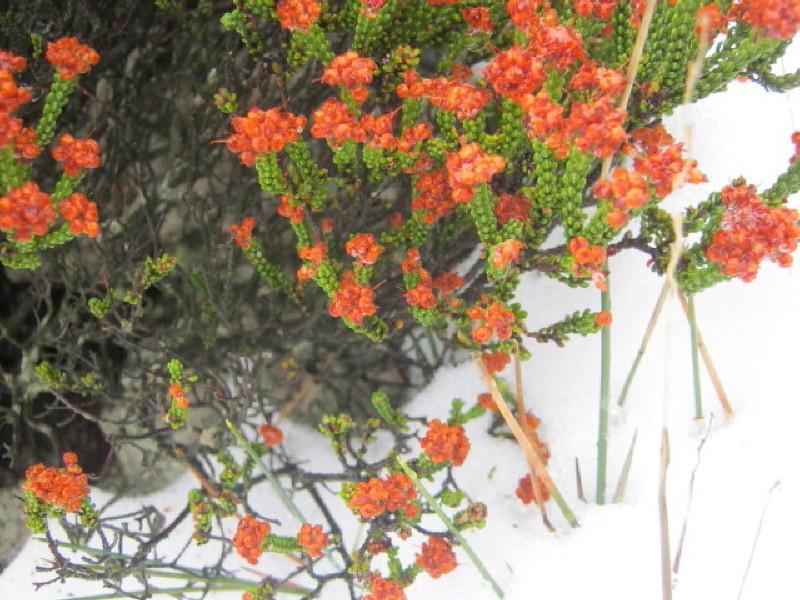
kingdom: Plantae
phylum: Tracheophyta
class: Magnoliopsida
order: Ericales
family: Ericaceae
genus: Erica
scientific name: Erica petraea
